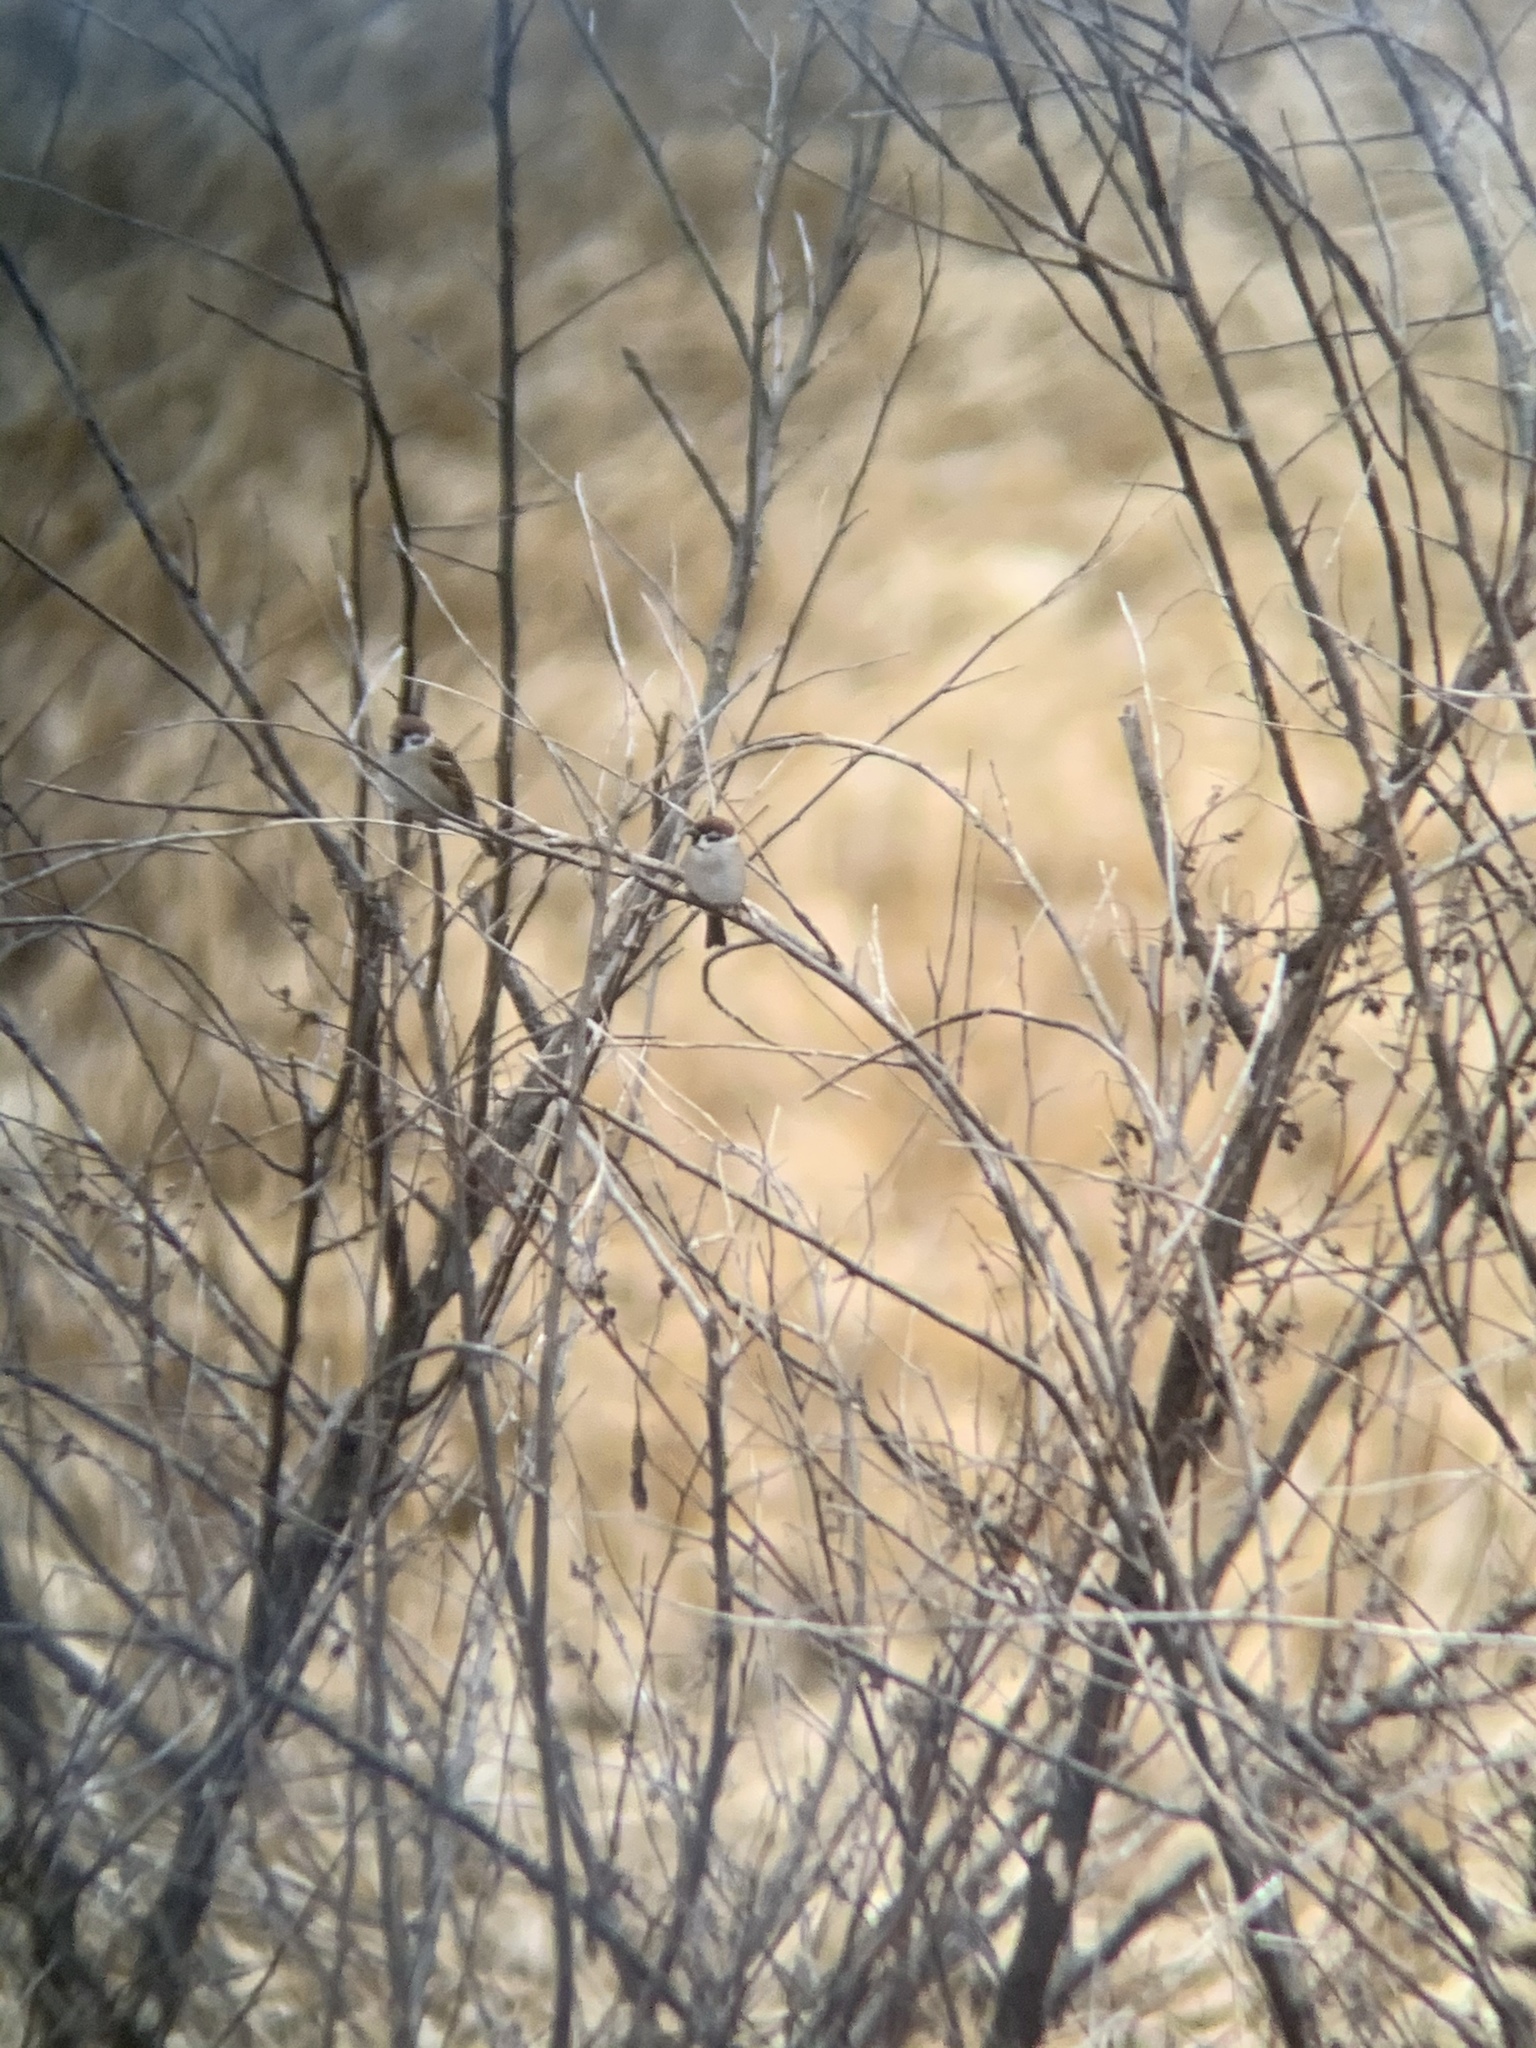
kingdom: Animalia
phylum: Chordata
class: Aves
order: Passeriformes
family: Passeridae
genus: Passer
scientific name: Passer montanus
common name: Eurasian tree sparrow
